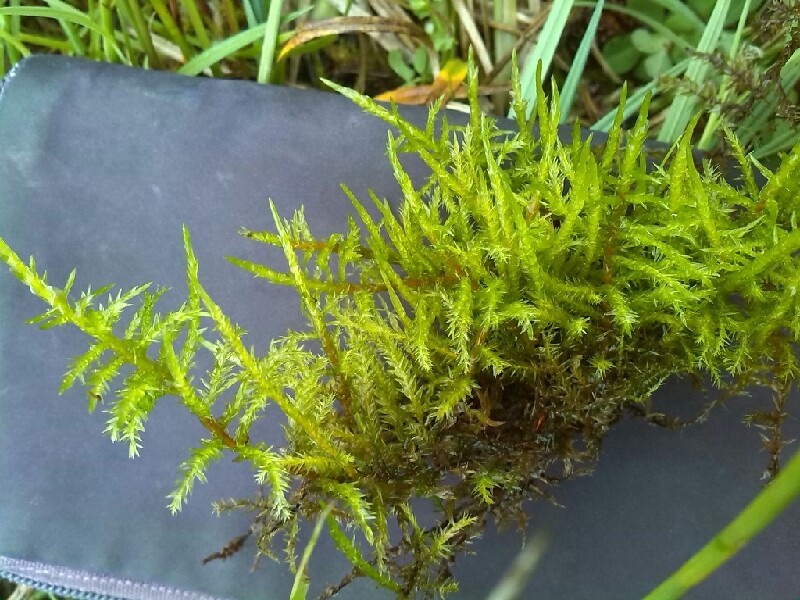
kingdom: Plantae
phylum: Bryophyta
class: Bryopsida
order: Hypnales
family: Pylaisiaceae
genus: Calliergonella
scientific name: Calliergonella cuspidata
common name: Common large wetland moss
